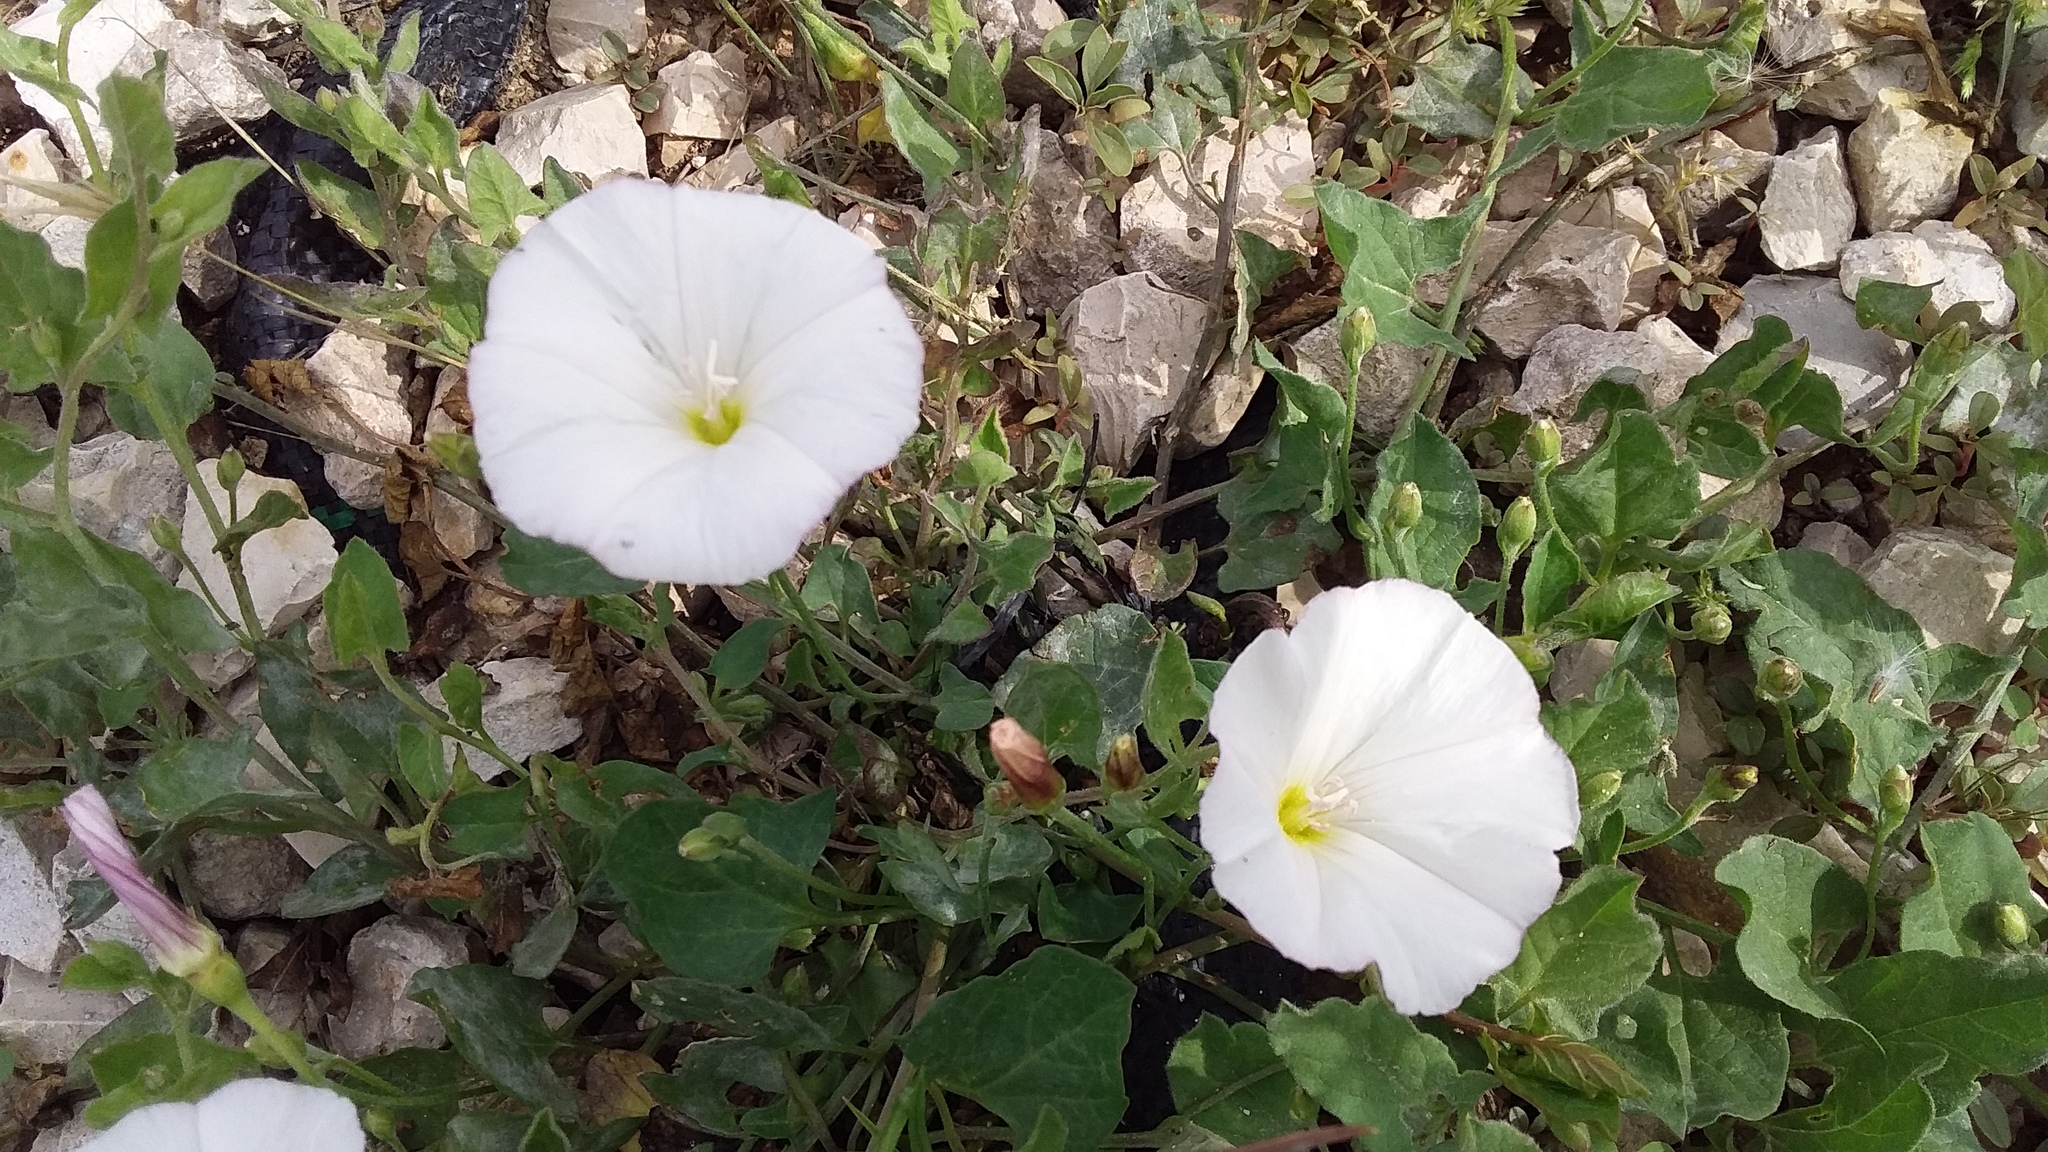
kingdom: Plantae
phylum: Tracheophyta
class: Magnoliopsida
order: Solanales
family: Convolvulaceae
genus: Convolvulus
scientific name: Convolvulus arvensis
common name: Field bindweed
